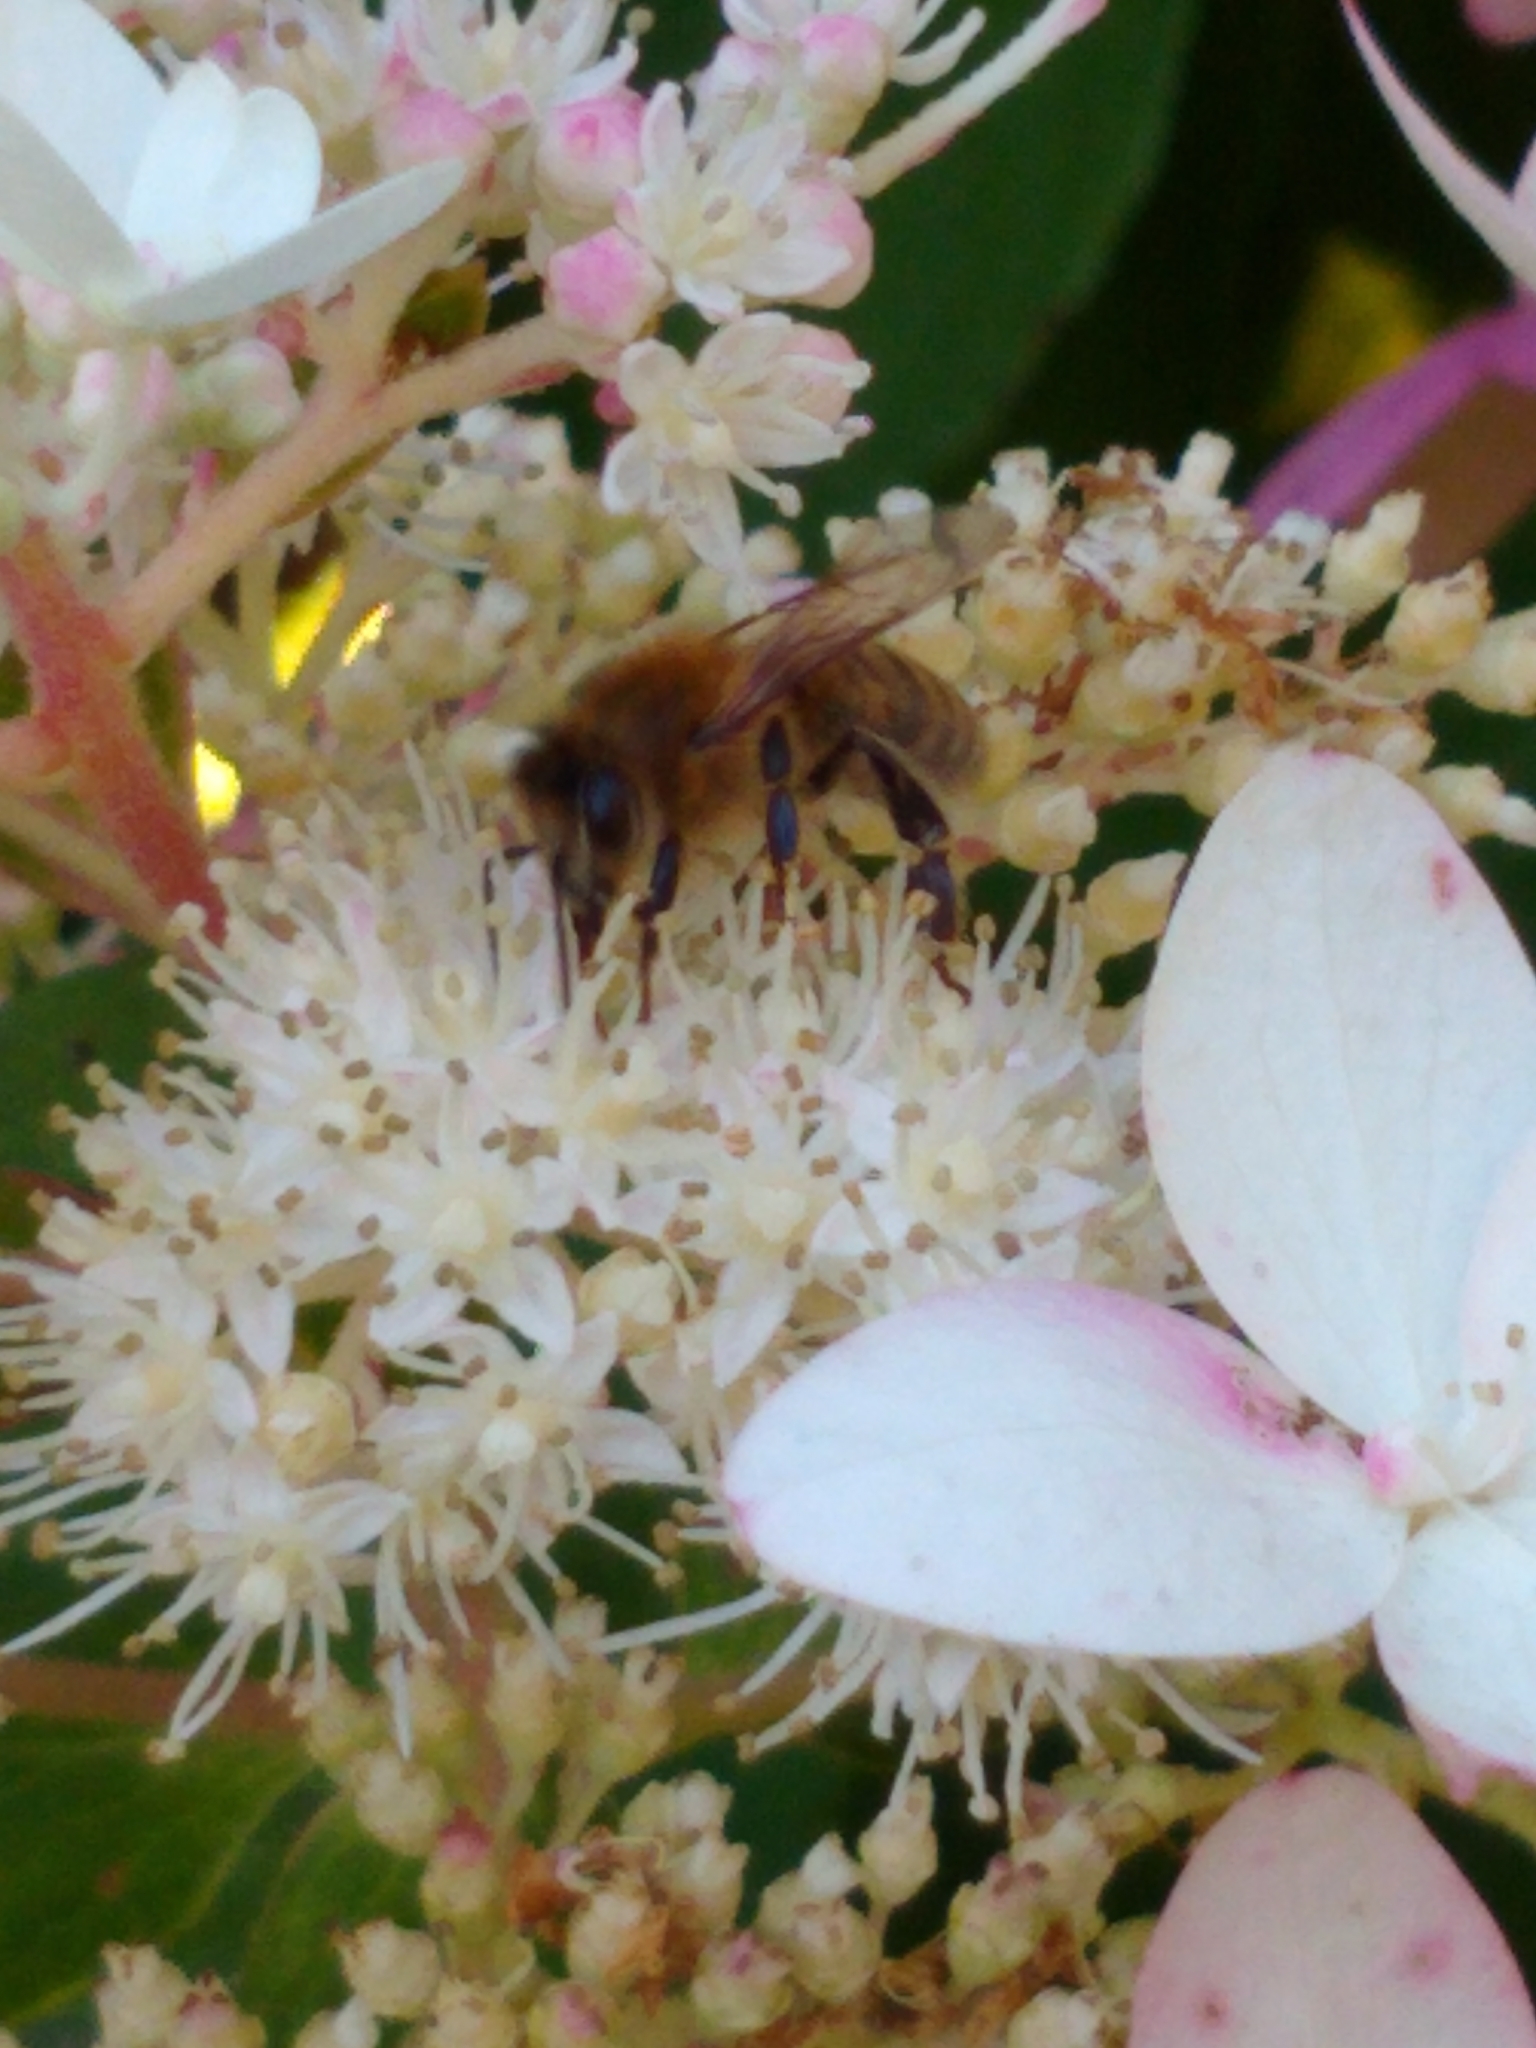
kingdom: Animalia
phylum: Arthropoda
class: Insecta
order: Hymenoptera
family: Apidae
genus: Apis
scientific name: Apis mellifera
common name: Honey bee
